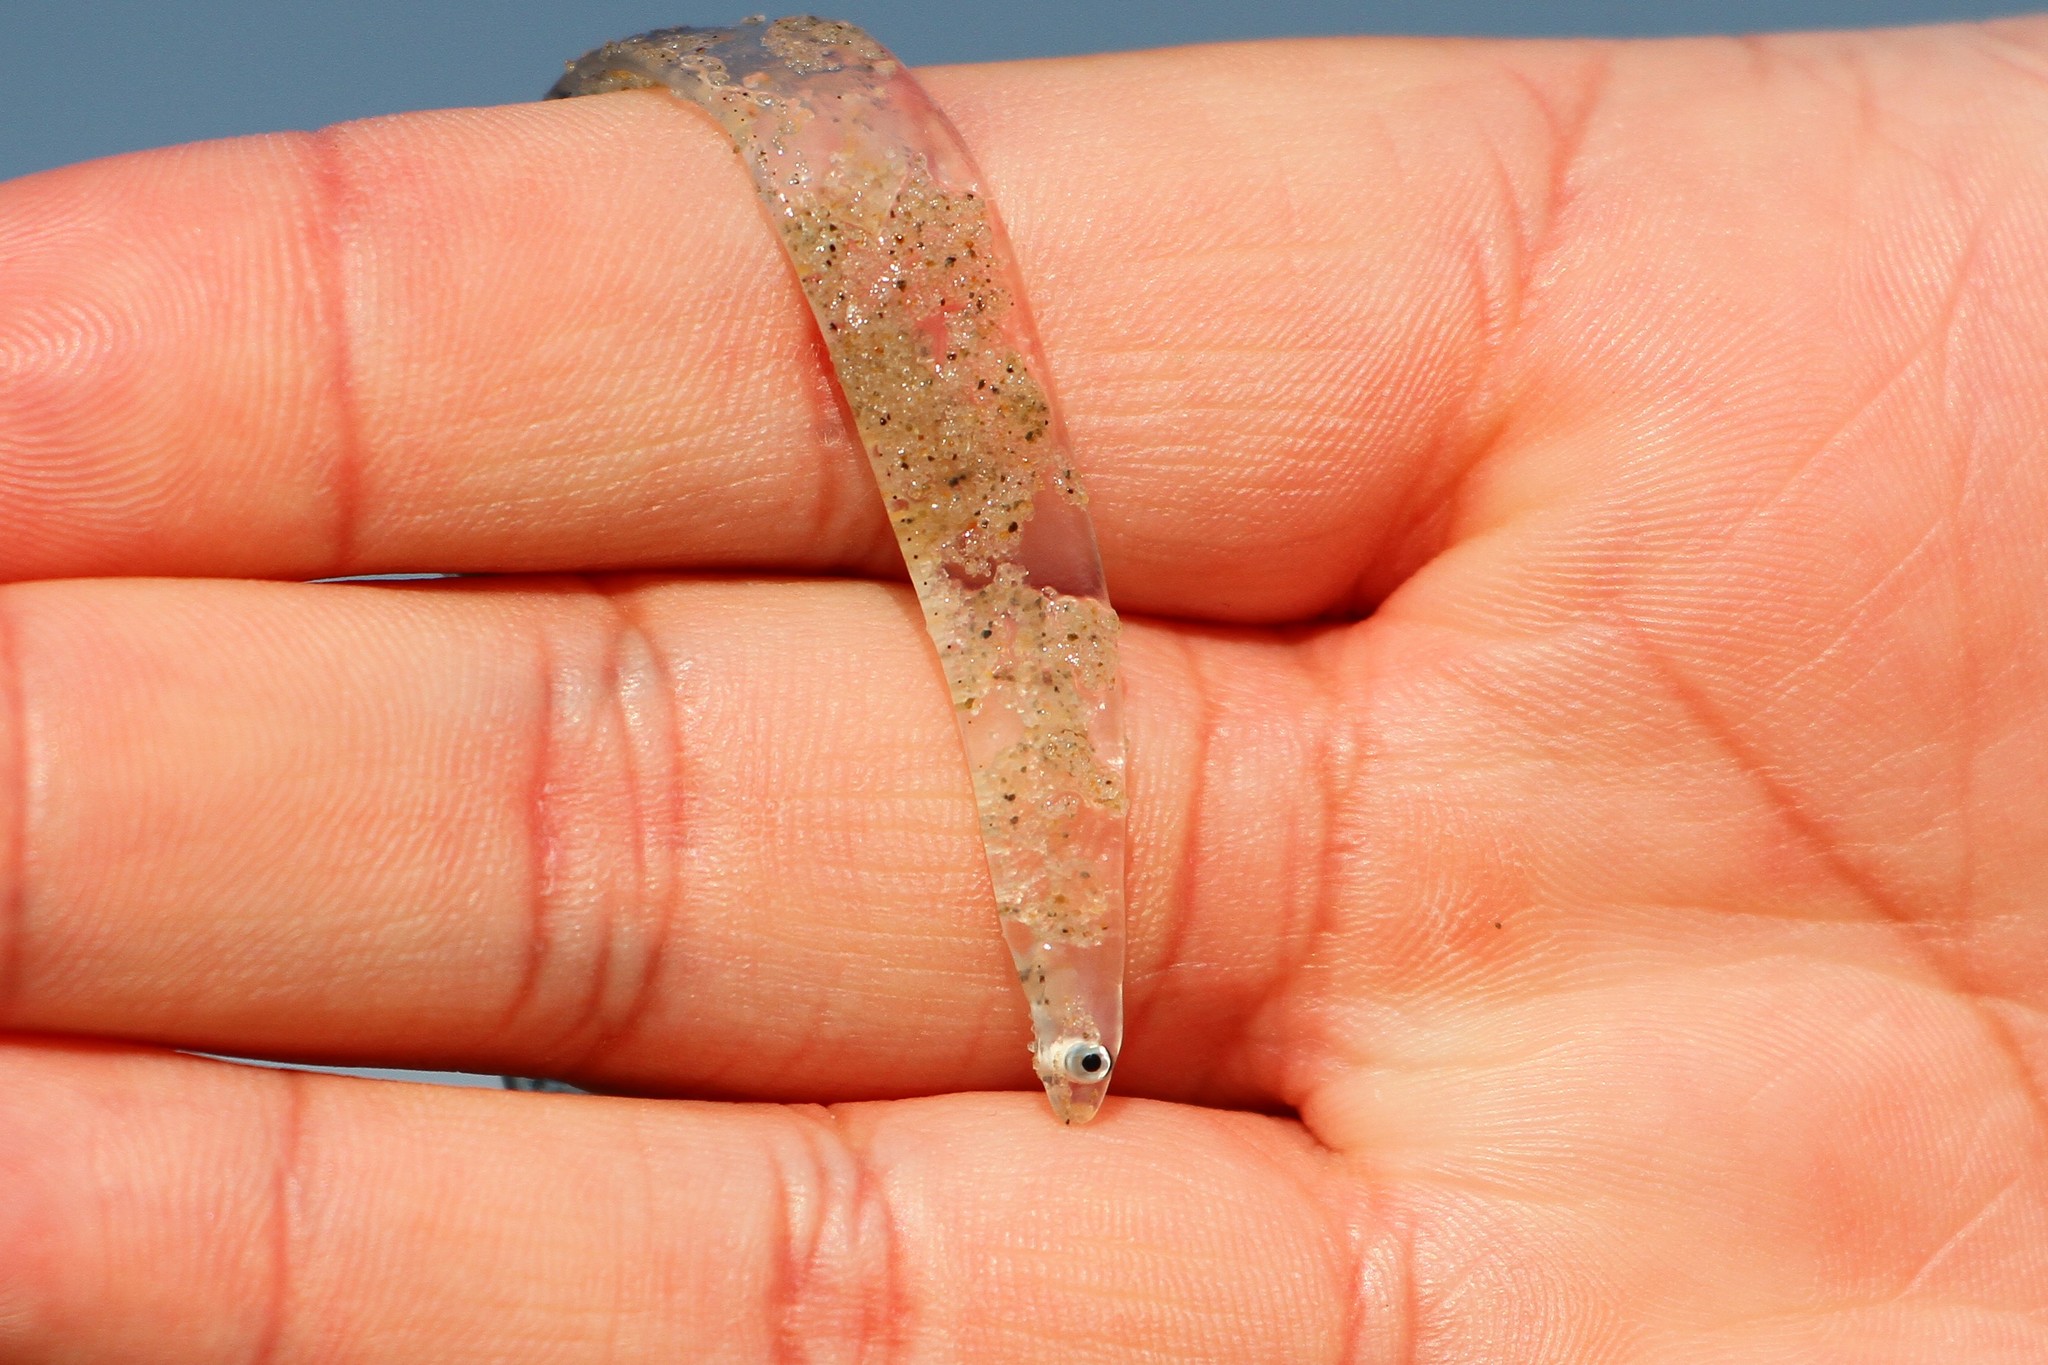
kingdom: Animalia
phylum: Chordata
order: Anguilliformes
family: Anguillidae
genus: Anguilla
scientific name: Anguilla rostrata
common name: American eel
